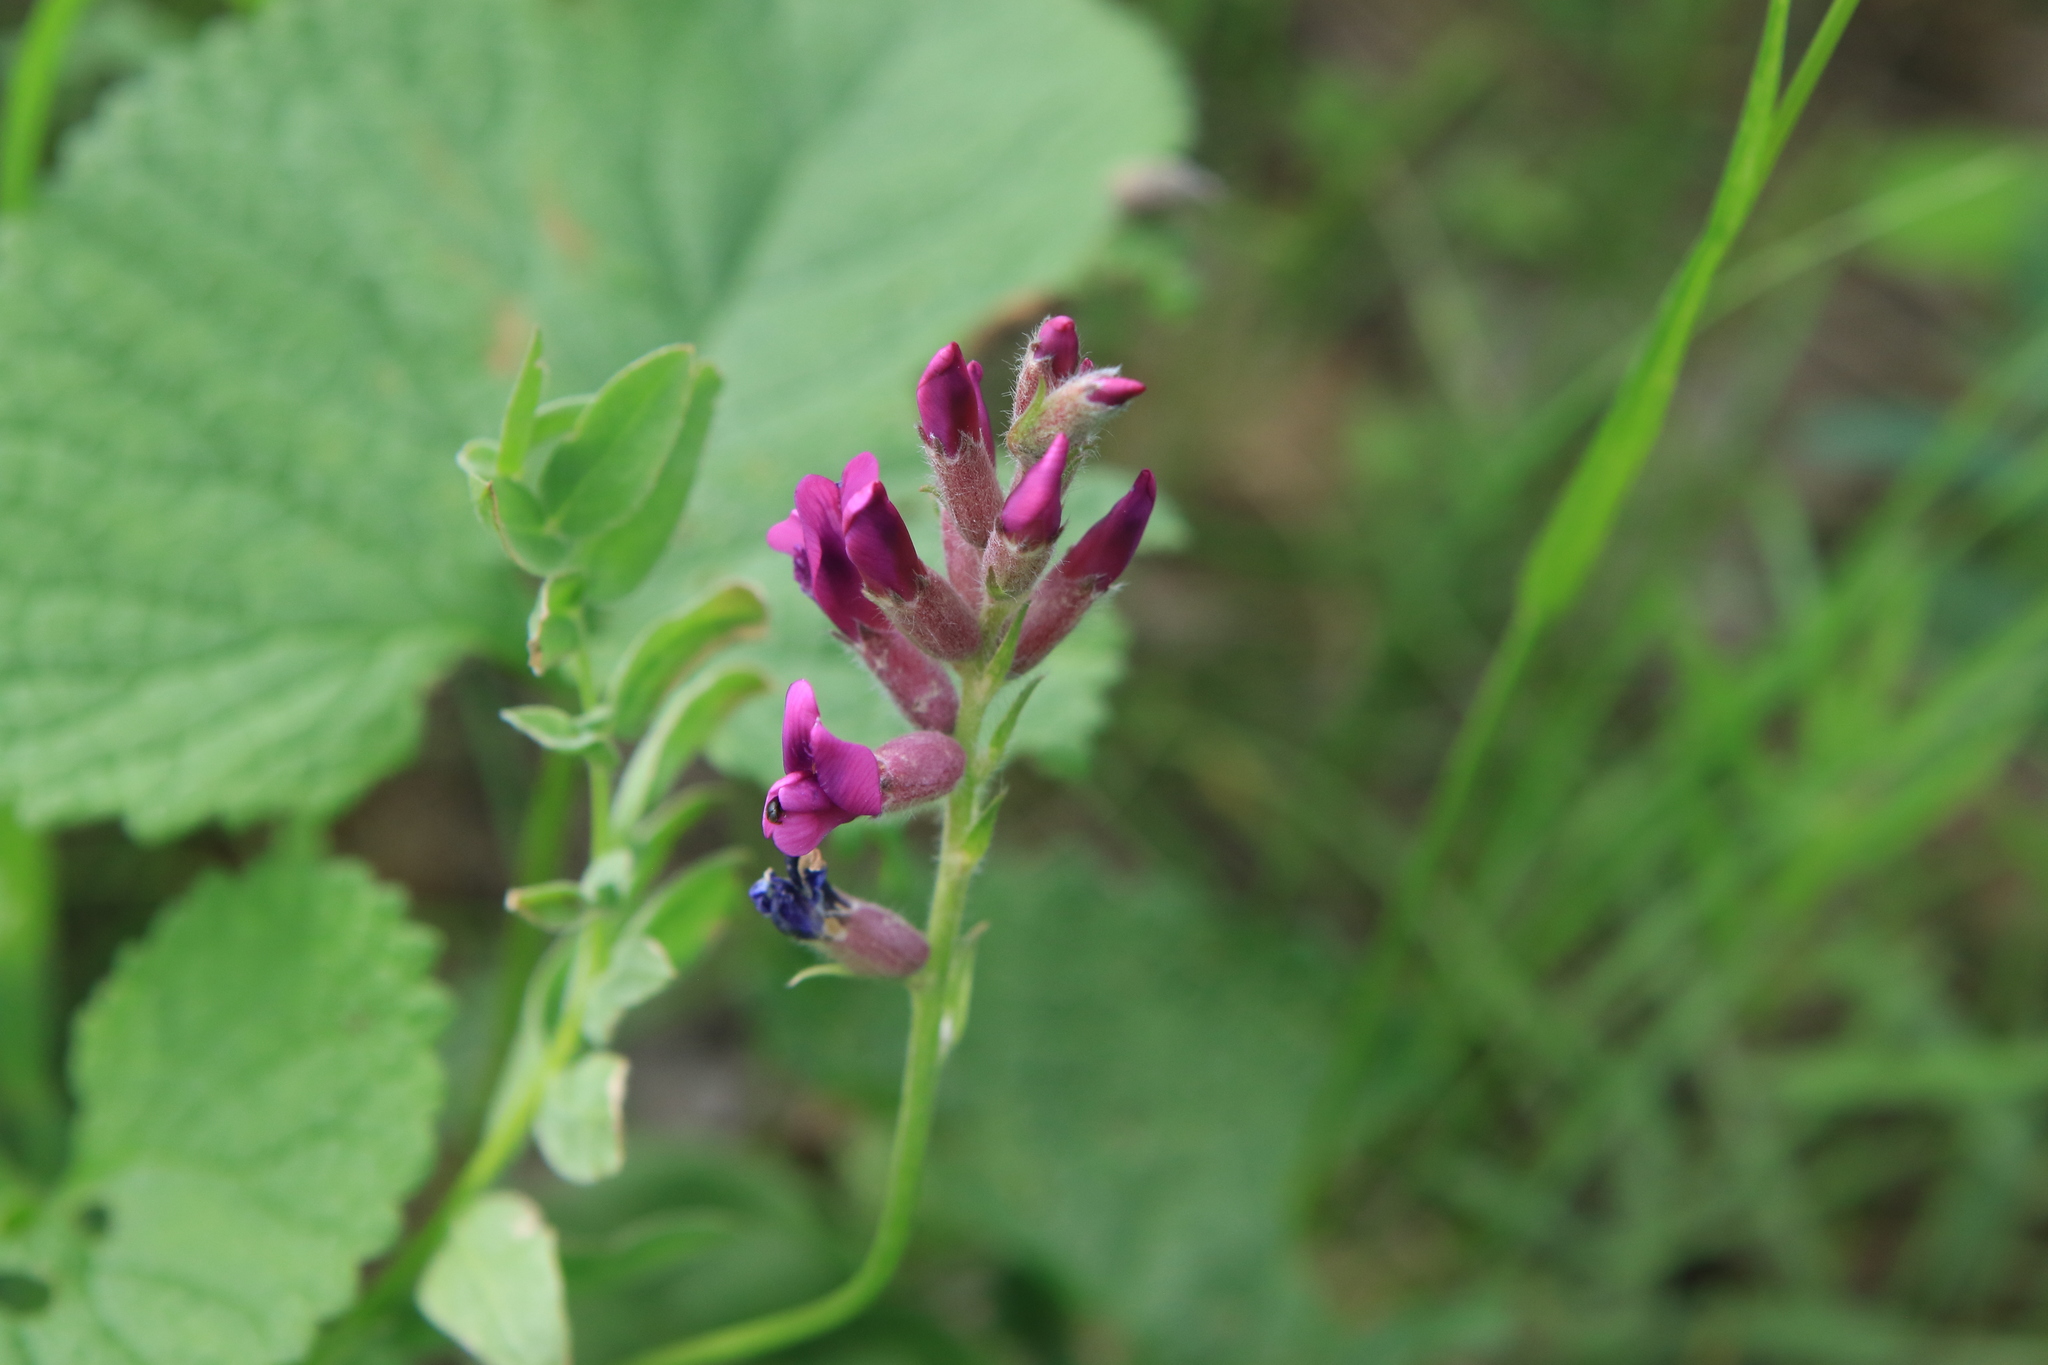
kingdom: Plantae
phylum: Tracheophyta
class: Magnoliopsida
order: Fabales
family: Fabaceae
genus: Oxytropis
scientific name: Oxytropis campanulata
